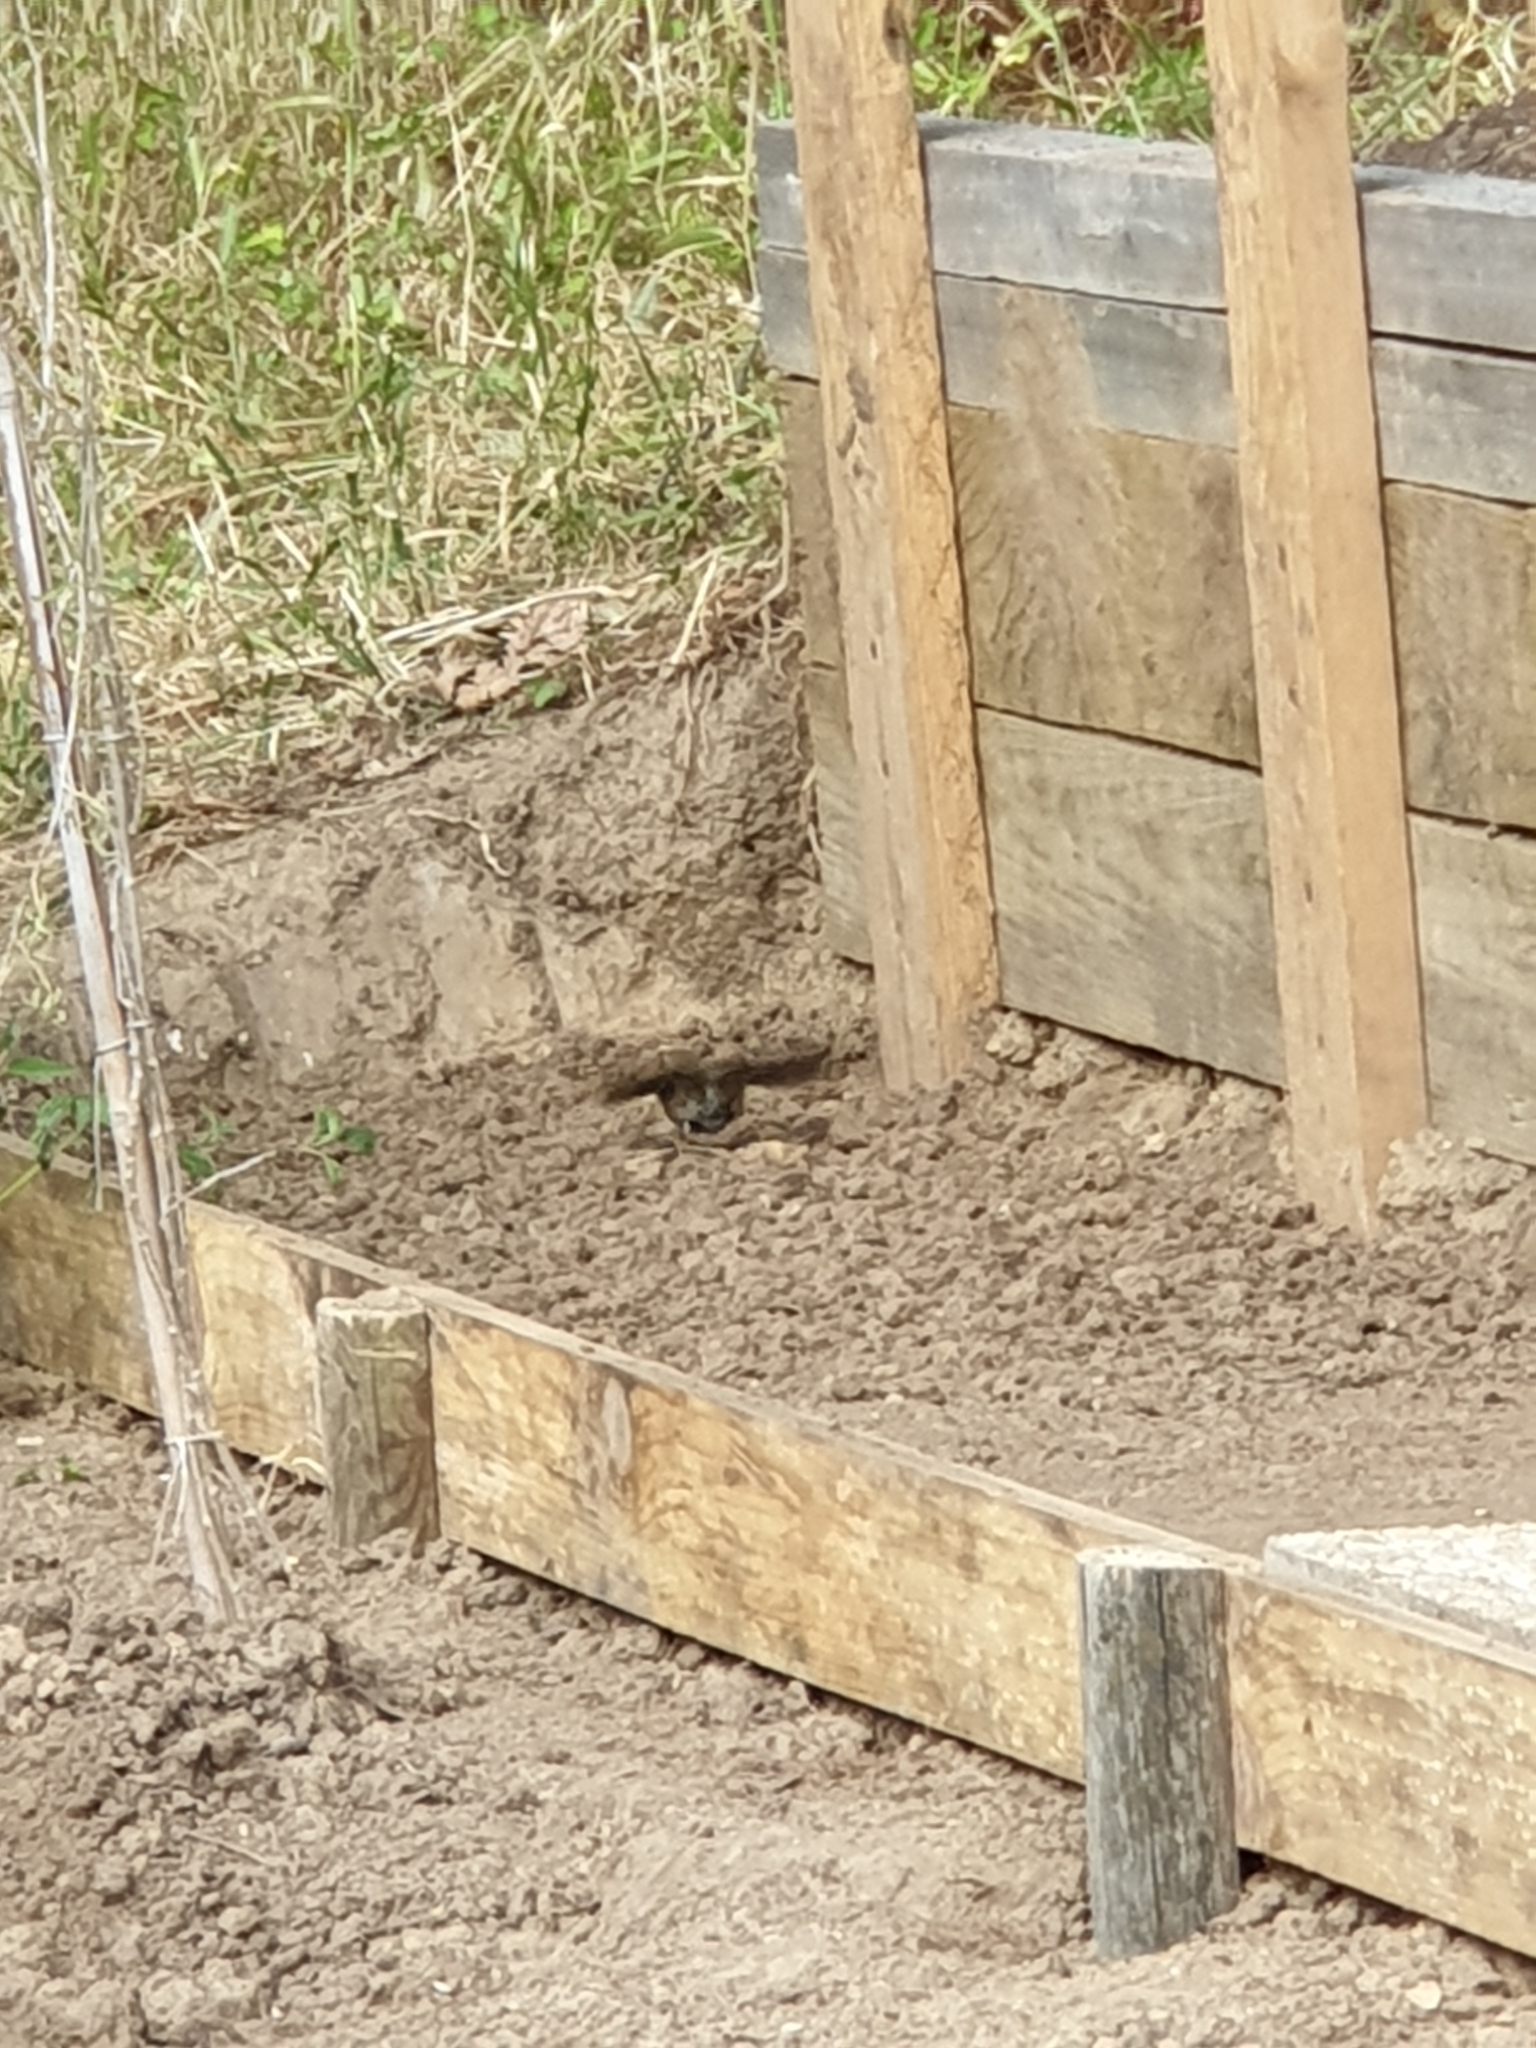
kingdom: Animalia
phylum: Chordata
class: Aves
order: Passeriformes
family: Muscicapidae
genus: Erithacus
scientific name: Erithacus rubecula
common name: European robin
